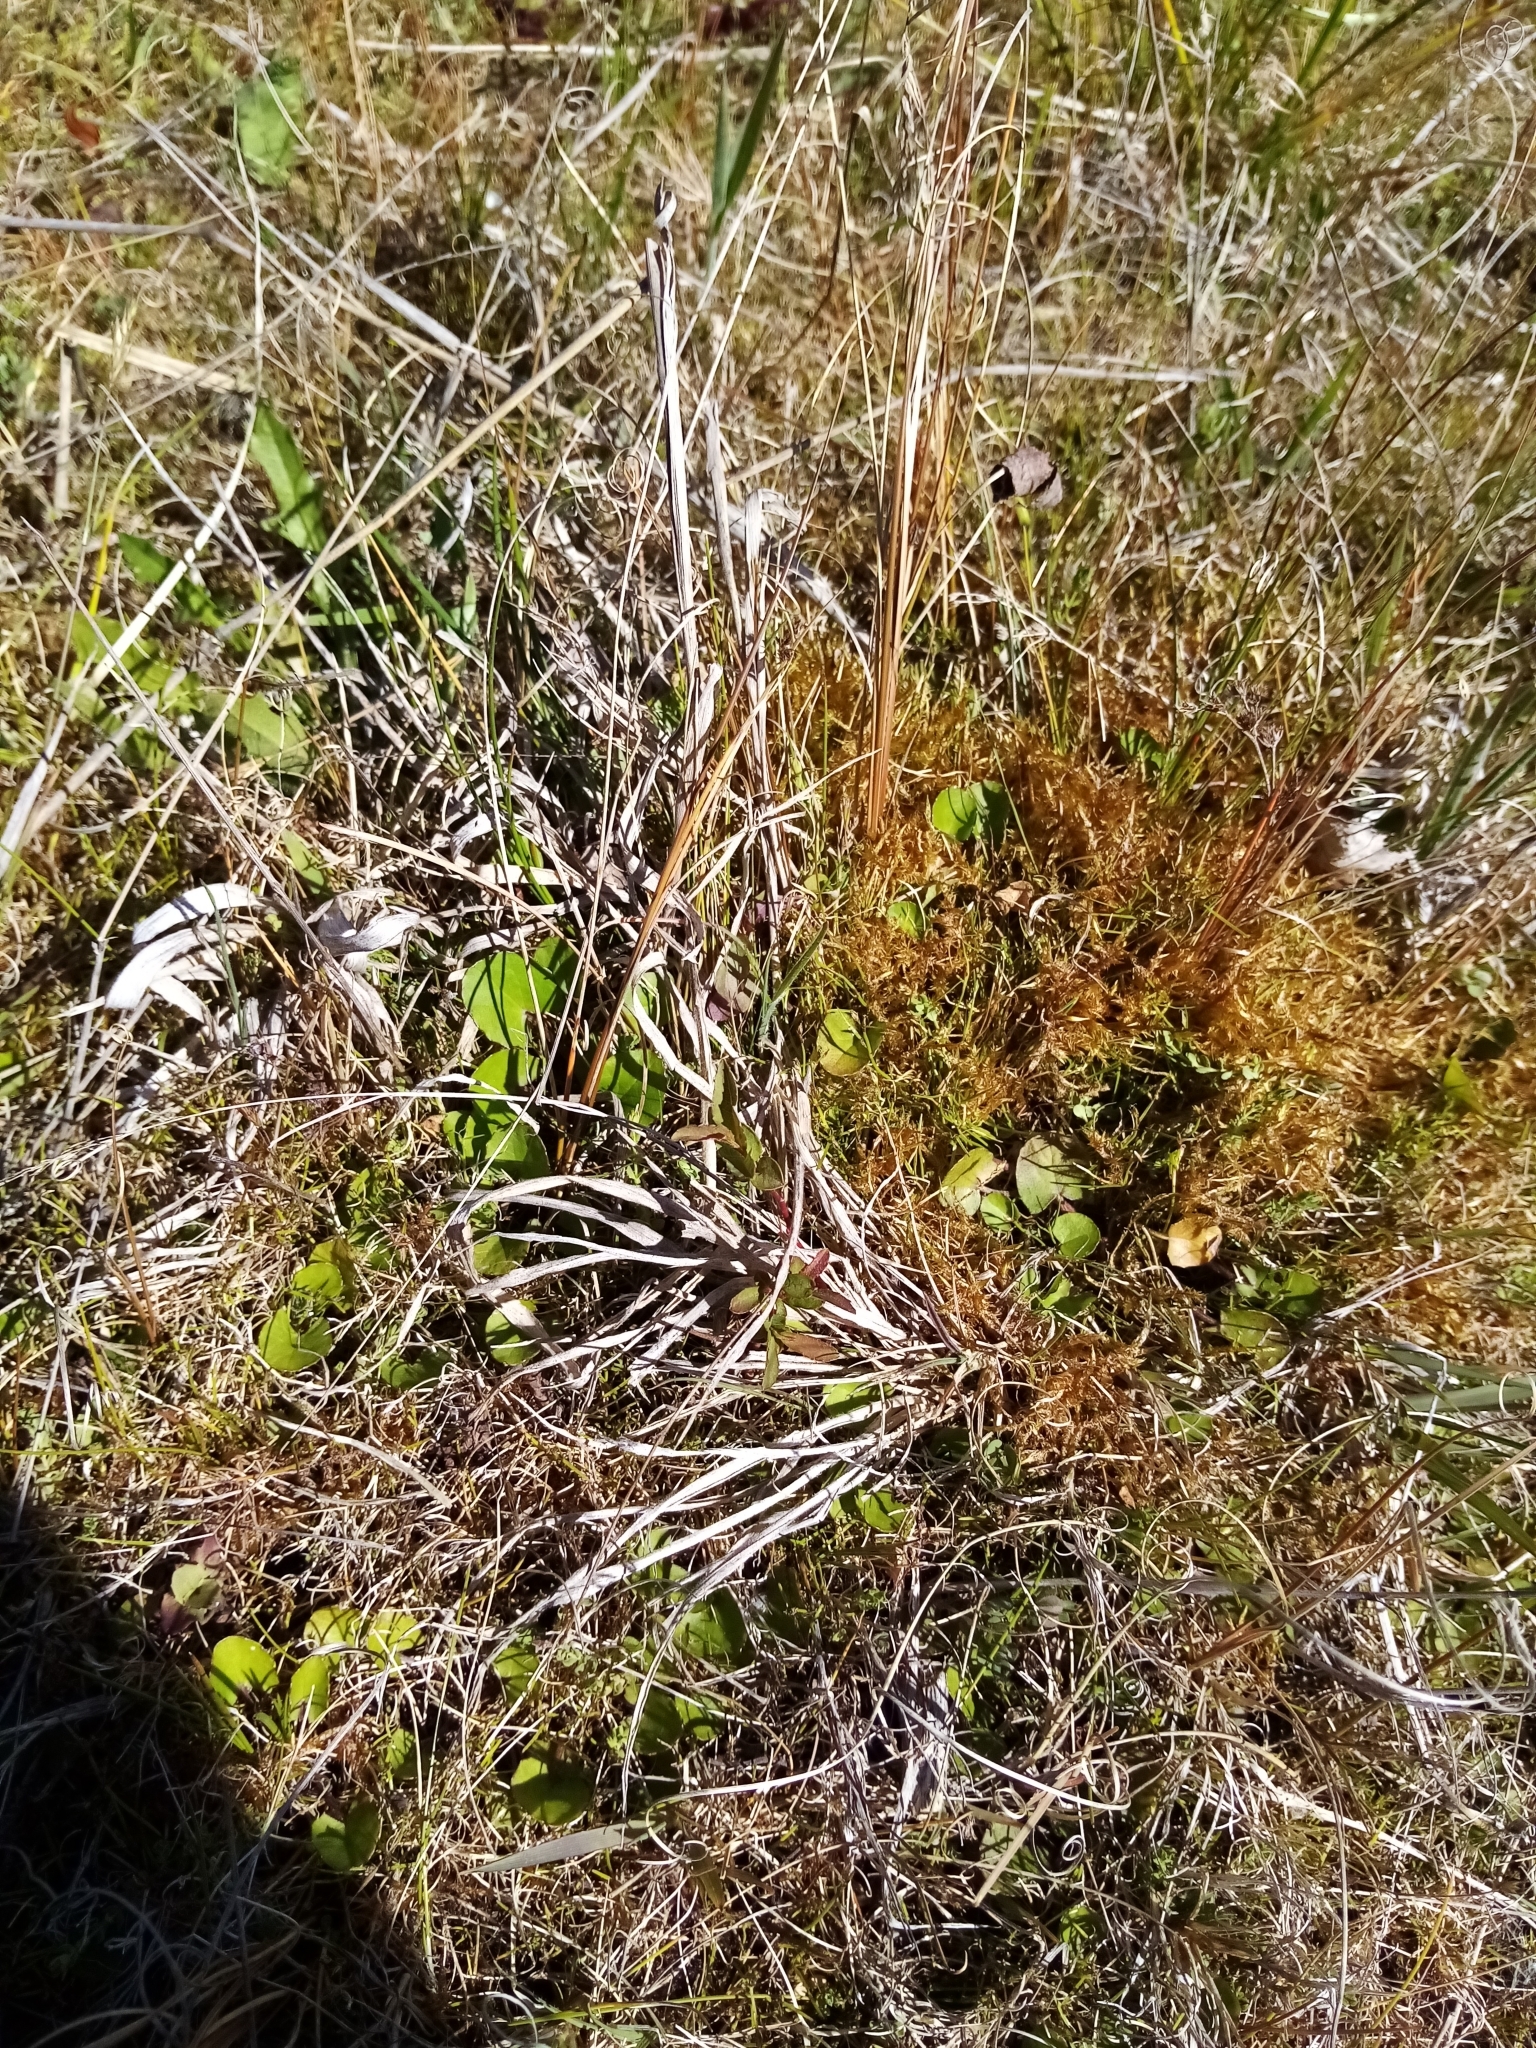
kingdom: Plantae
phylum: Tracheophyta
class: Magnoliopsida
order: Apiales
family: Apiaceae
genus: Centella
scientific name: Centella uniflora
